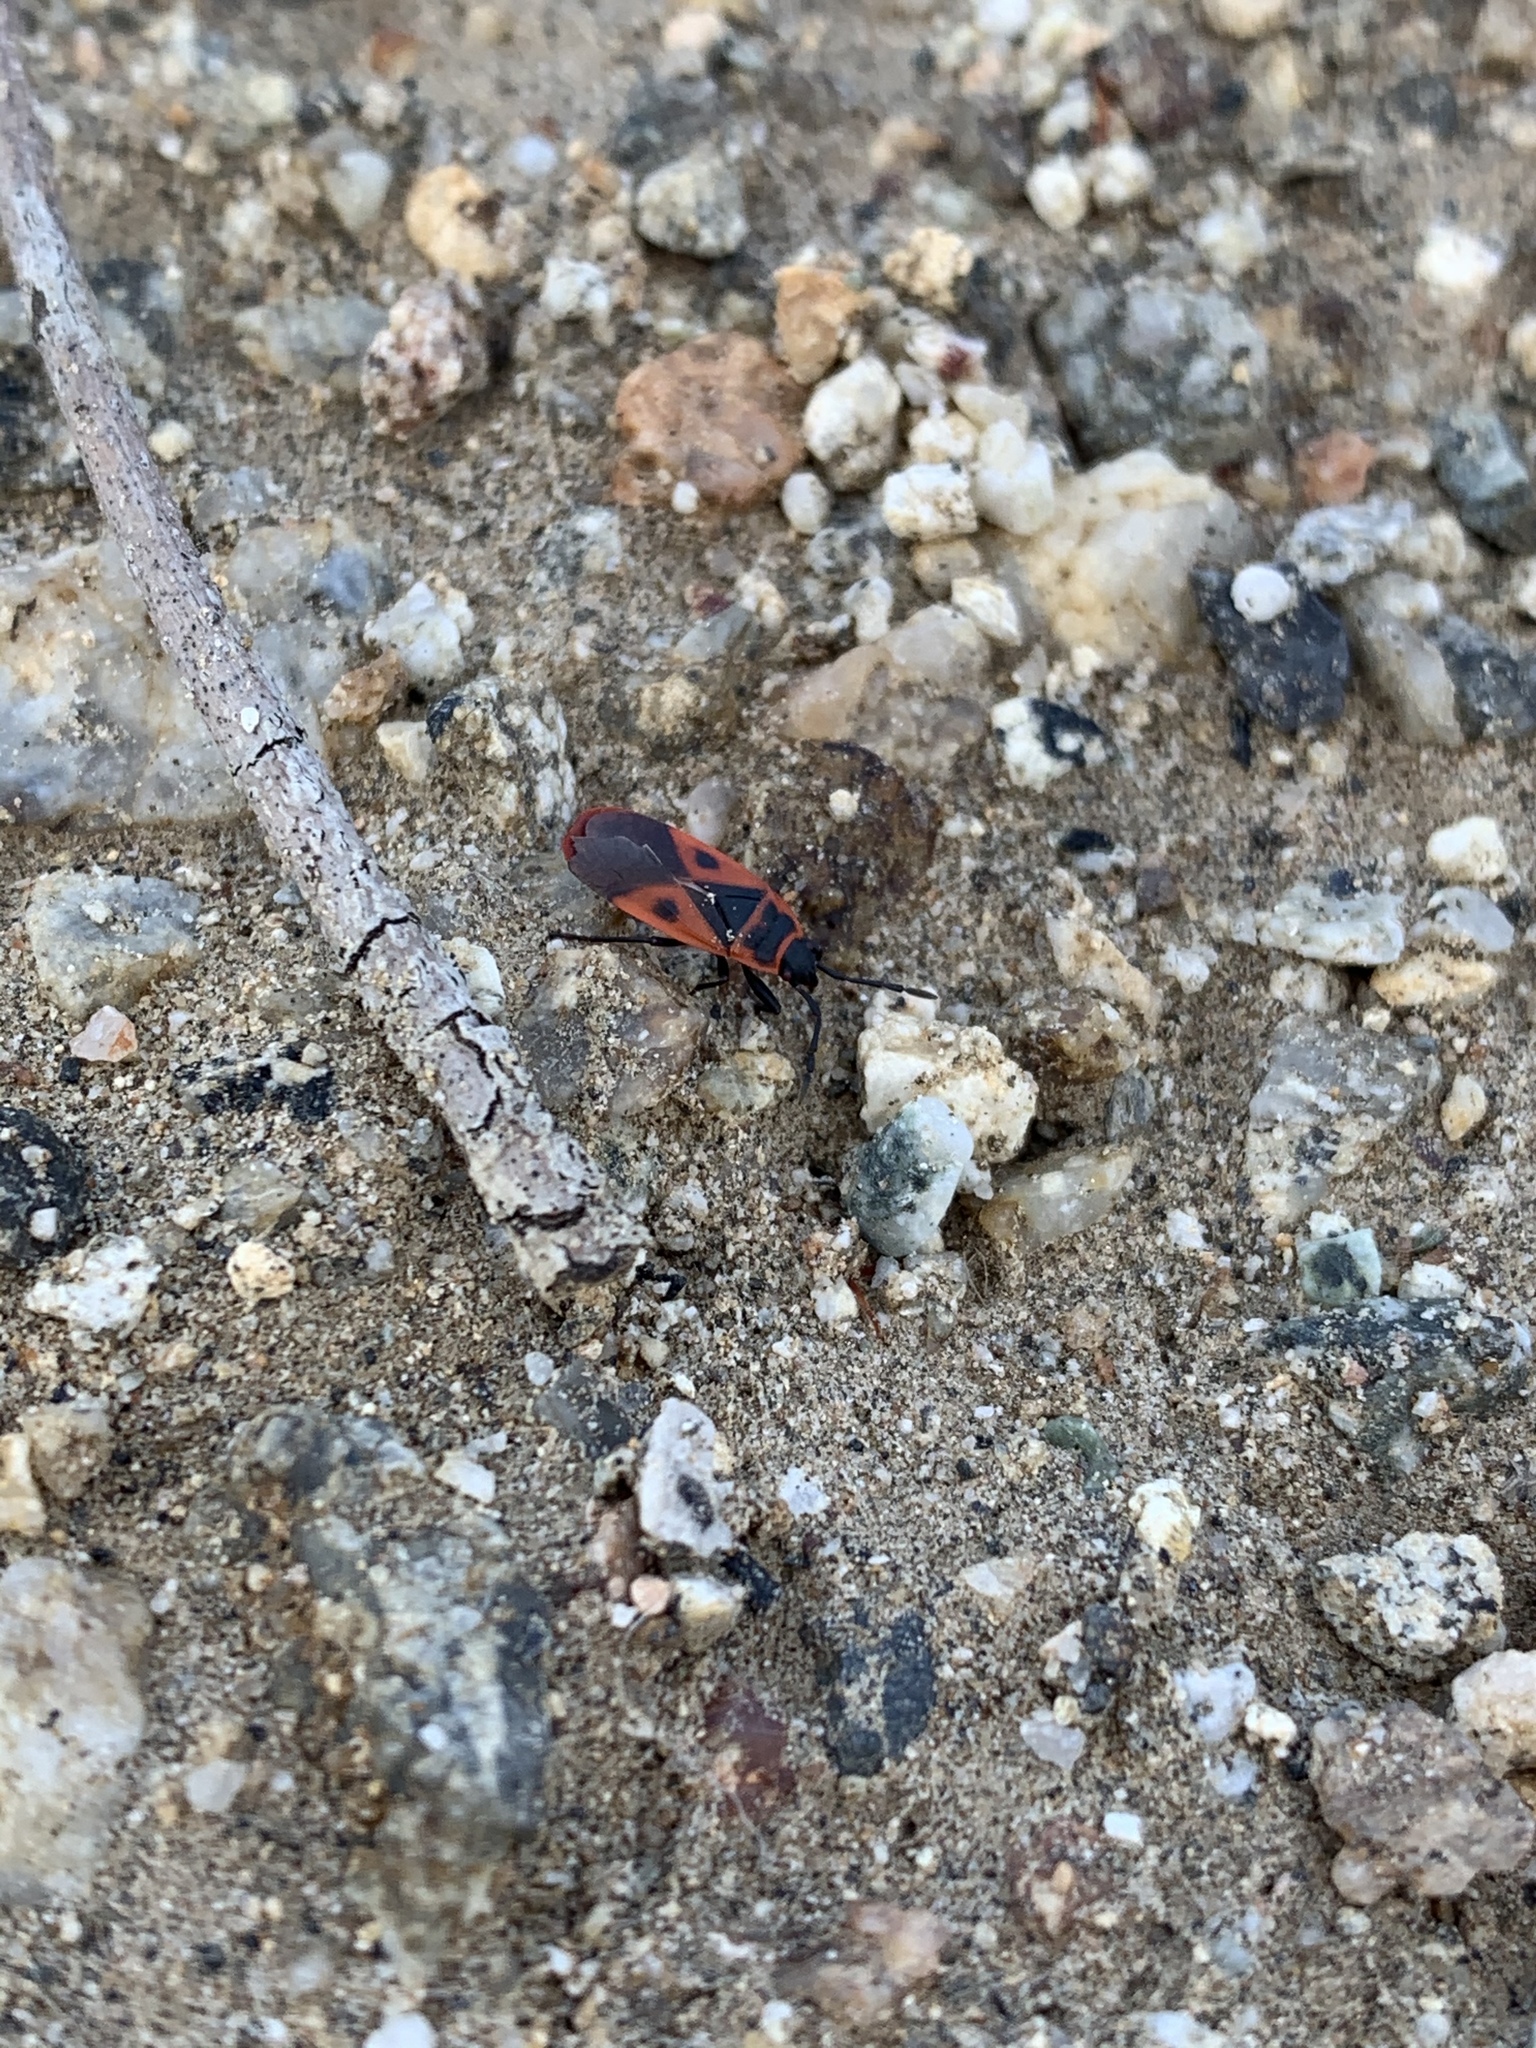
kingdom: Animalia
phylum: Arthropoda
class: Insecta
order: Hemiptera
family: Pyrrhocoridae
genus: Scantius
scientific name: Scantius aegyptius
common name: Red bug
